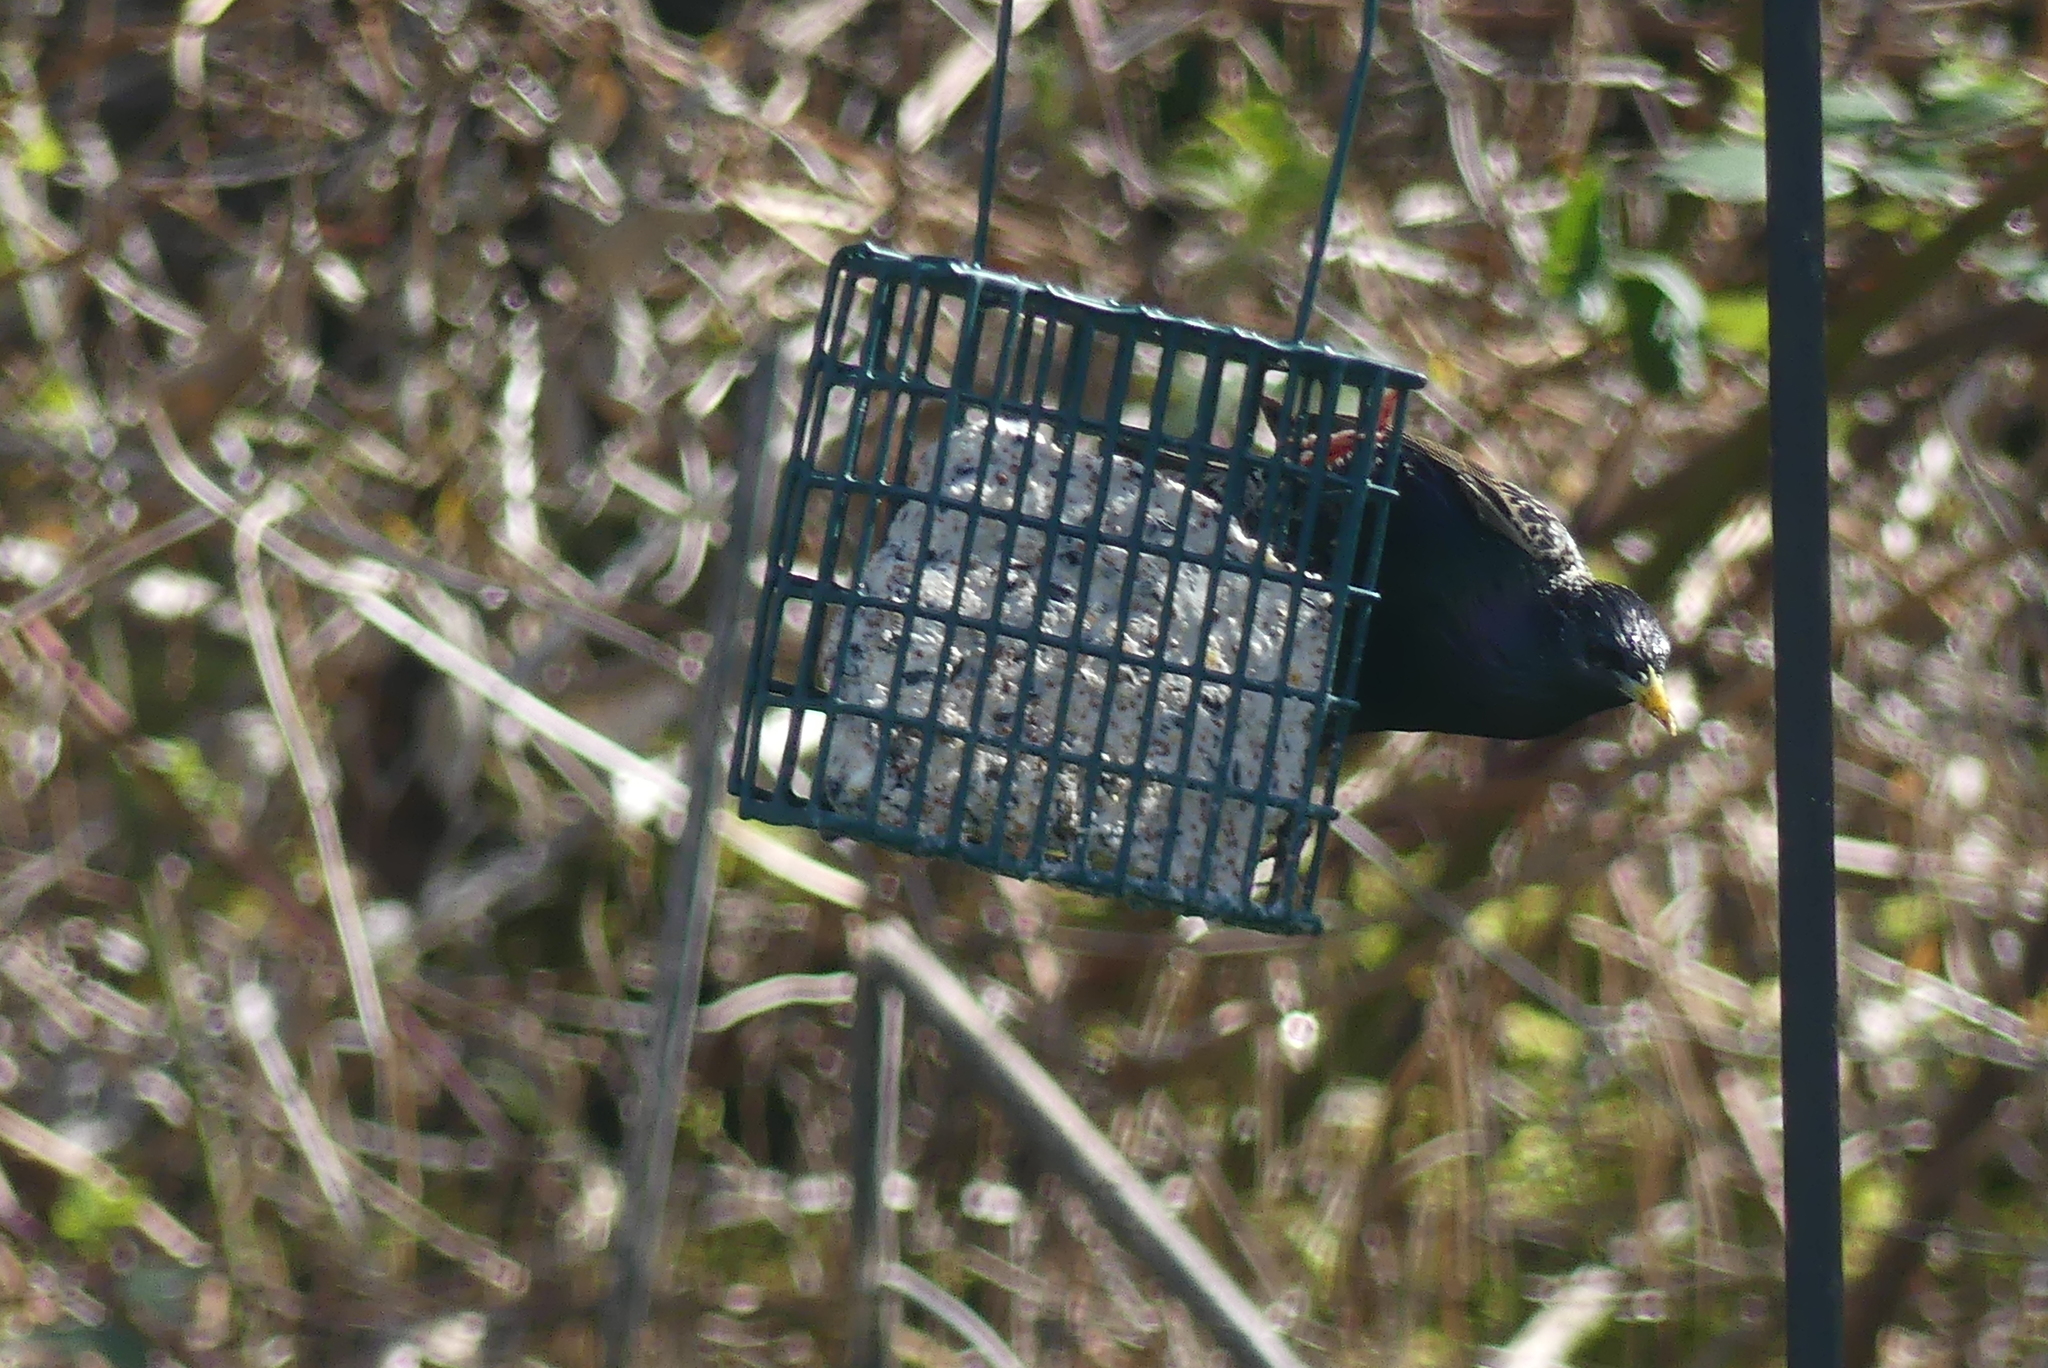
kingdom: Animalia
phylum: Chordata
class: Aves
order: Passeriformes
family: Sturnidae
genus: Sturnus
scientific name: Sturnus vulgaris
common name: Common starling
